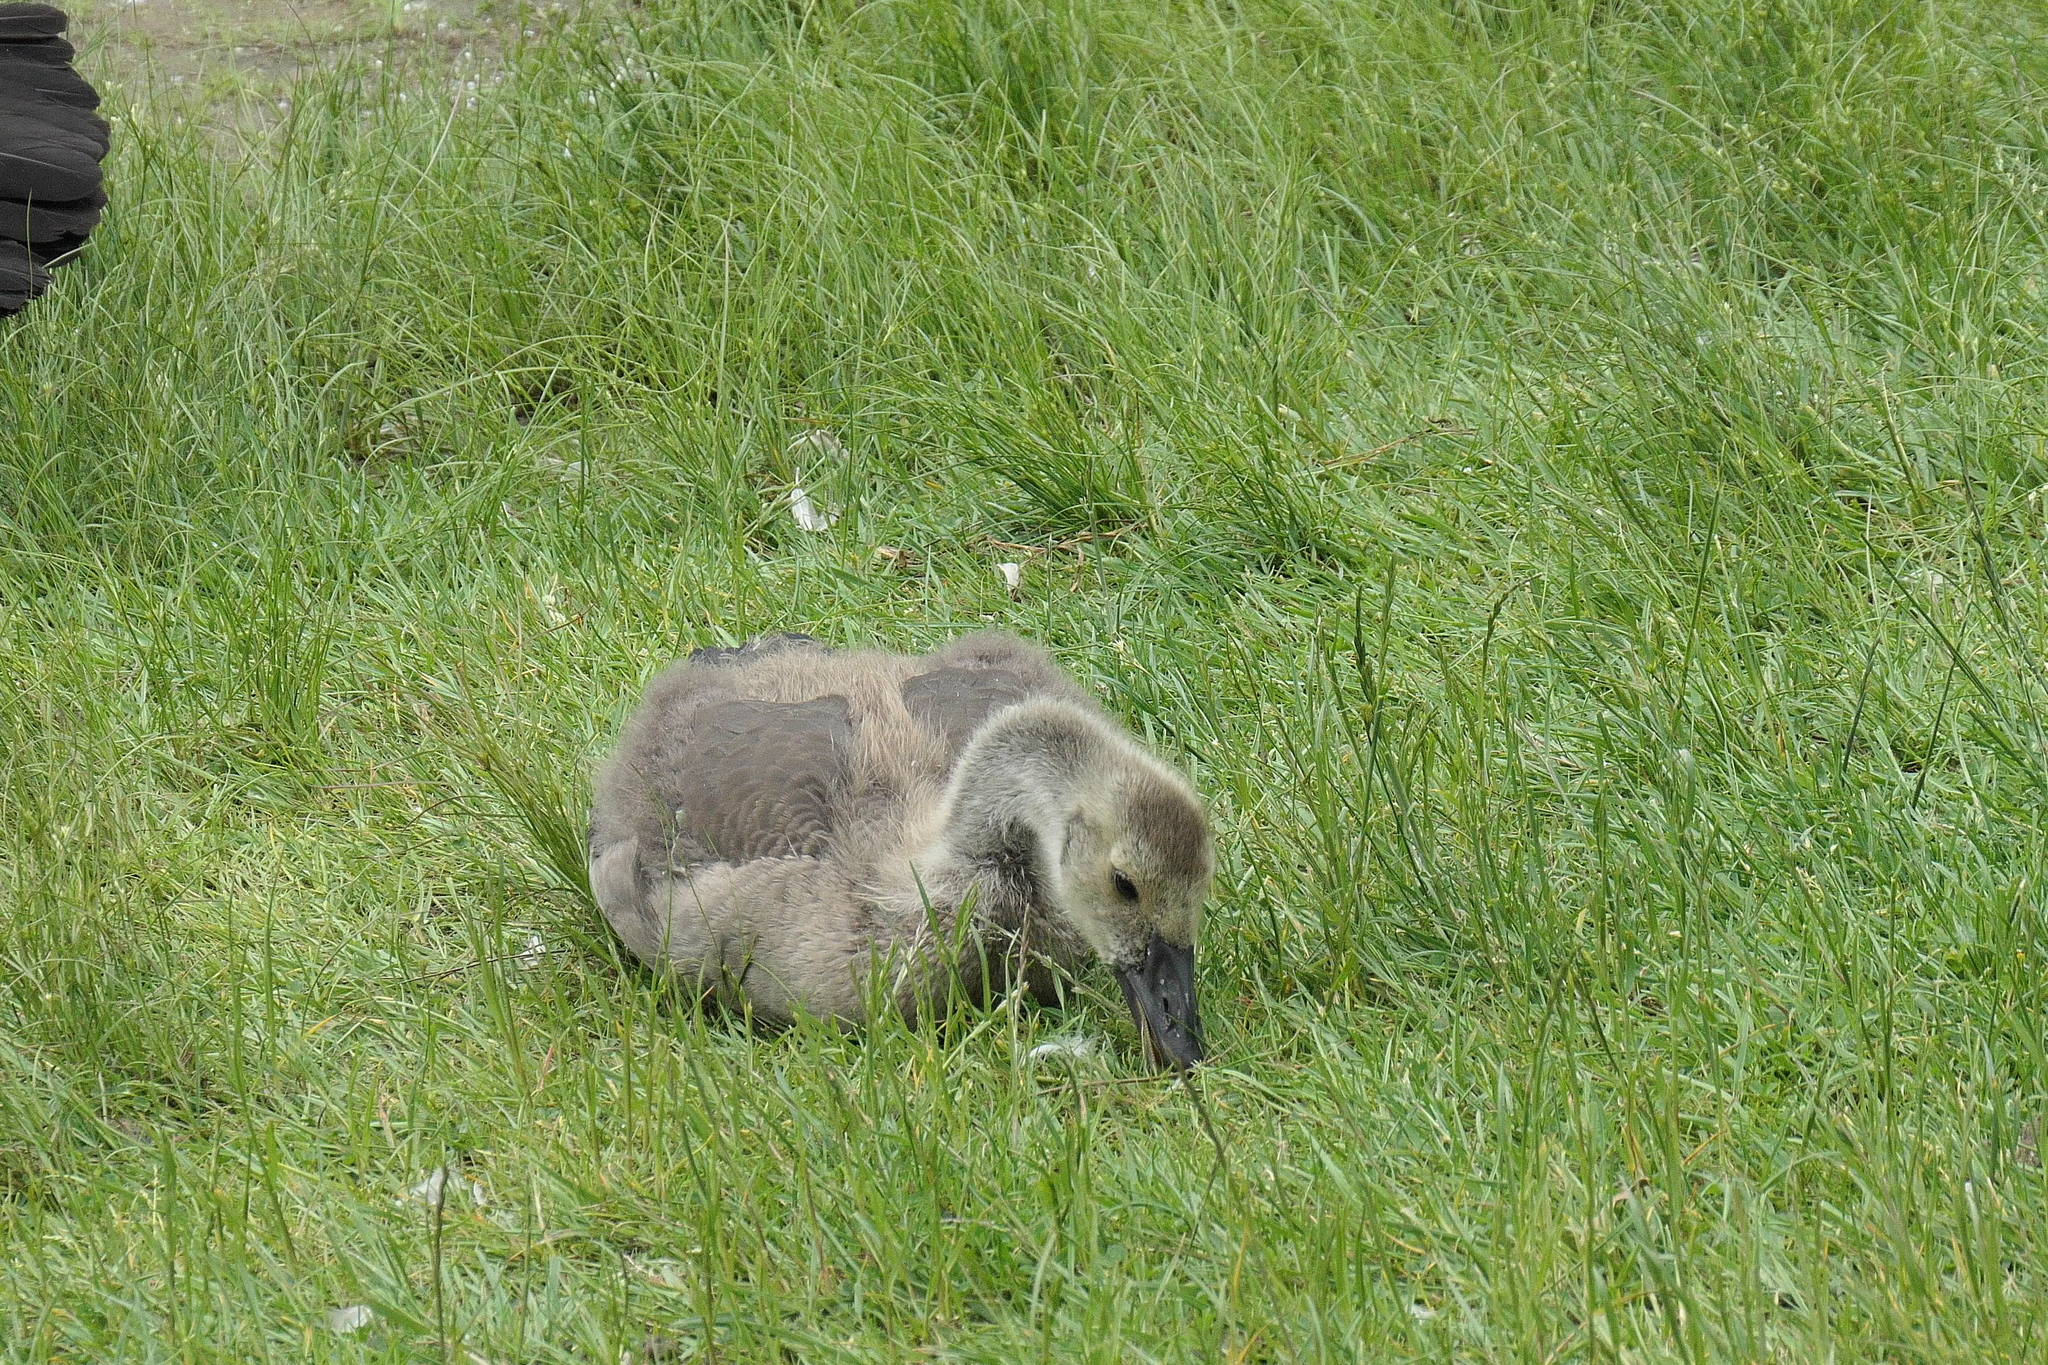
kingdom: Animalia
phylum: Chordata
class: Aves
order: Anseriformes
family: Anatidae
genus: Branta
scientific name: Branta canadensis
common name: Canada goose
